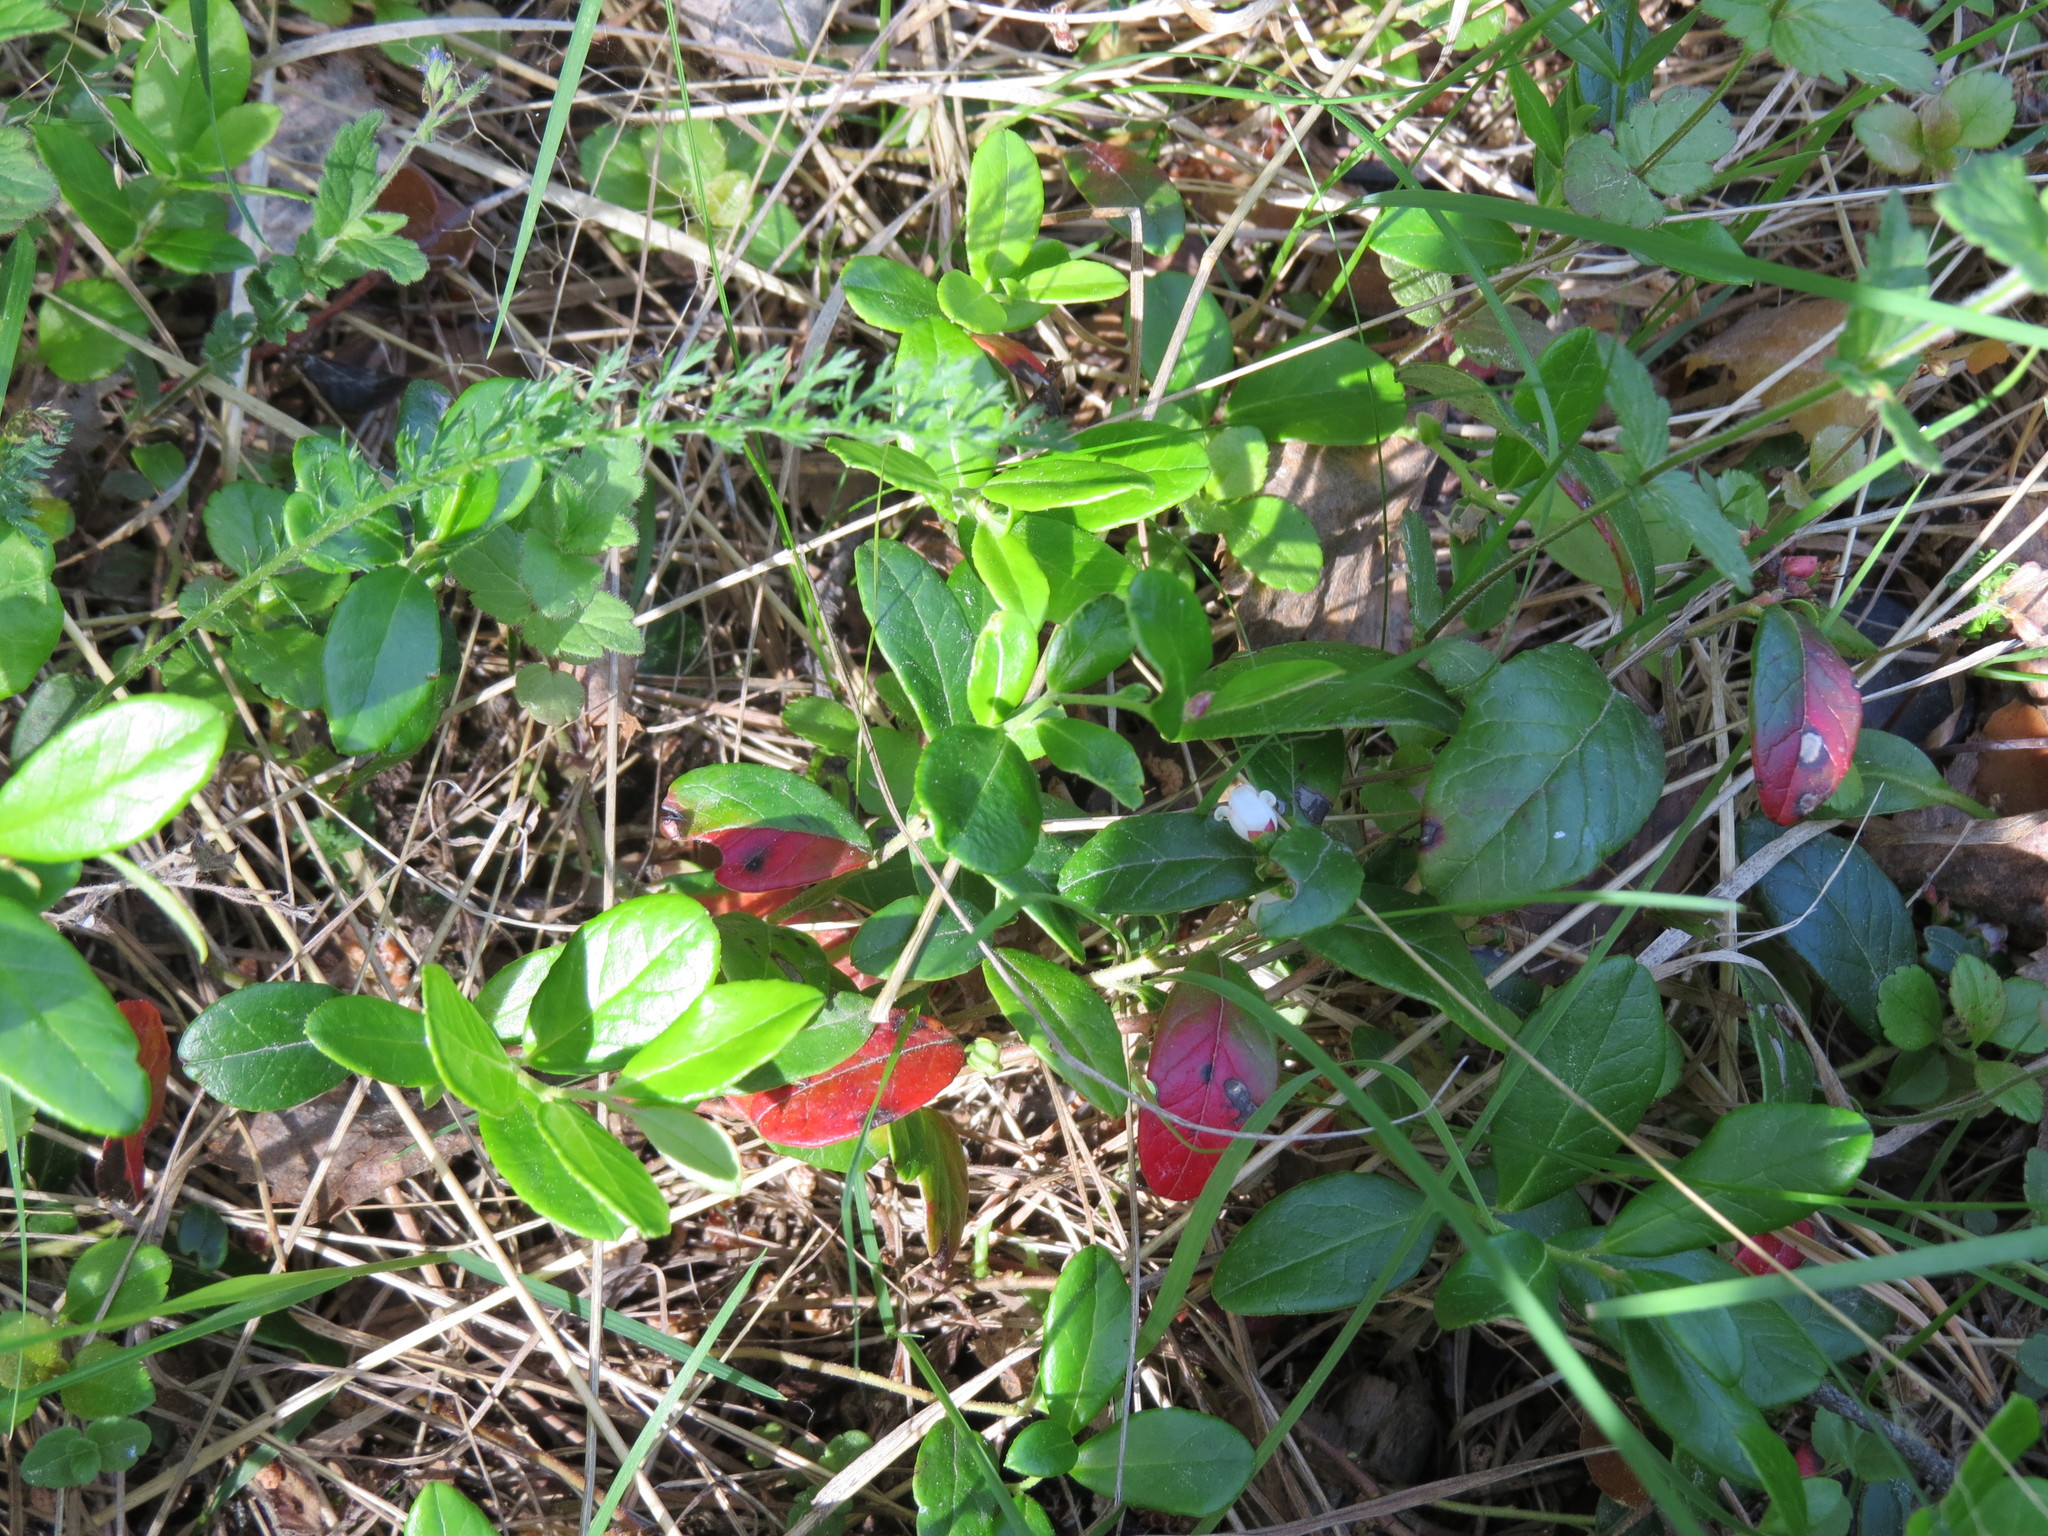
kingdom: Plantae
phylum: Tracheophyta
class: Magnoliopsida
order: Ericales
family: Ericaceae
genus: Vaccinium
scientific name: Vaccinium vitis-idaea
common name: Cowberry
